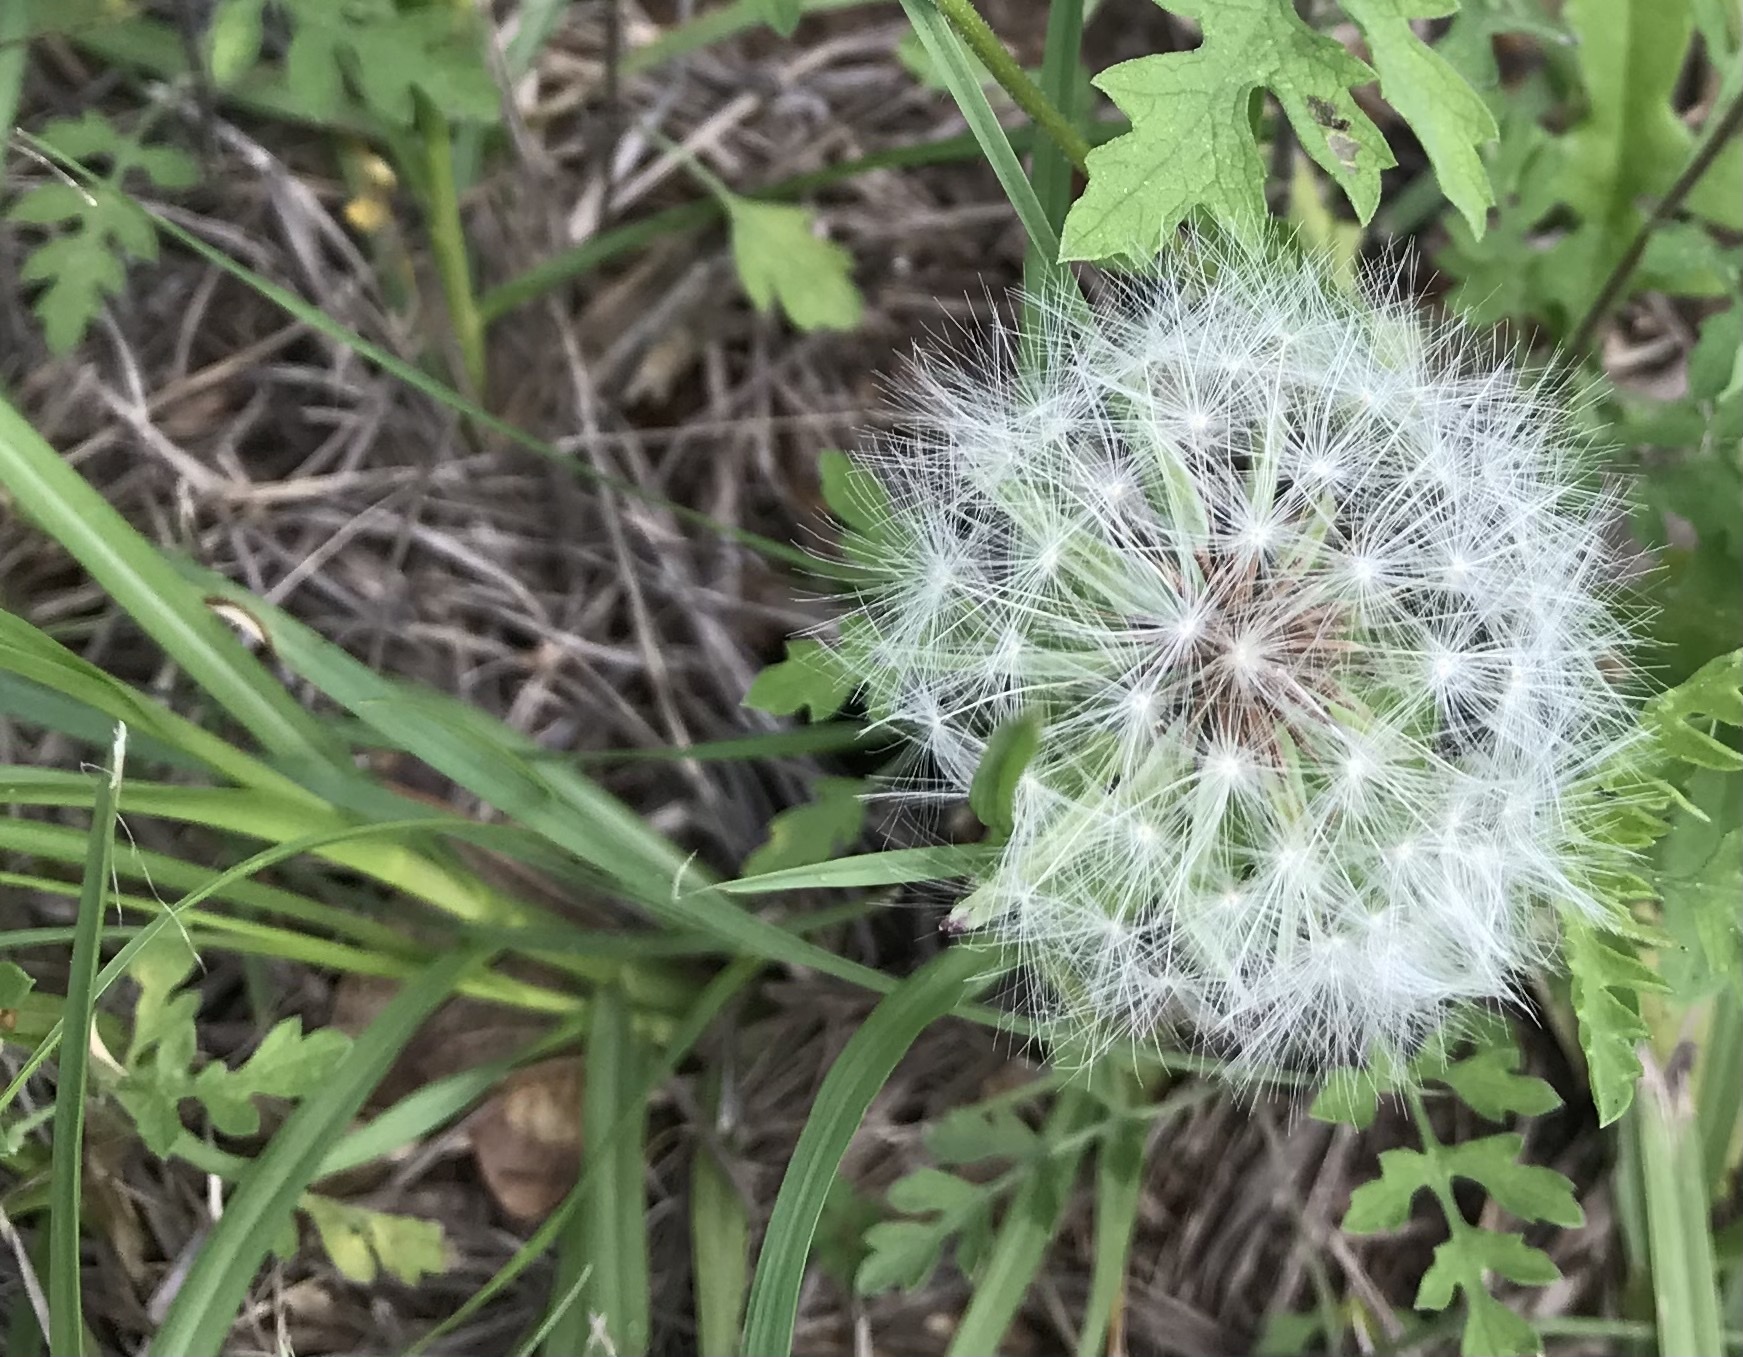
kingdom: Plantae
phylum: Tracheophyta
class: Magnoliopsida
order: Asterales
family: Asteraceae
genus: Taraxacum
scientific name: Taraxacum officinale
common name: Common dandelion
